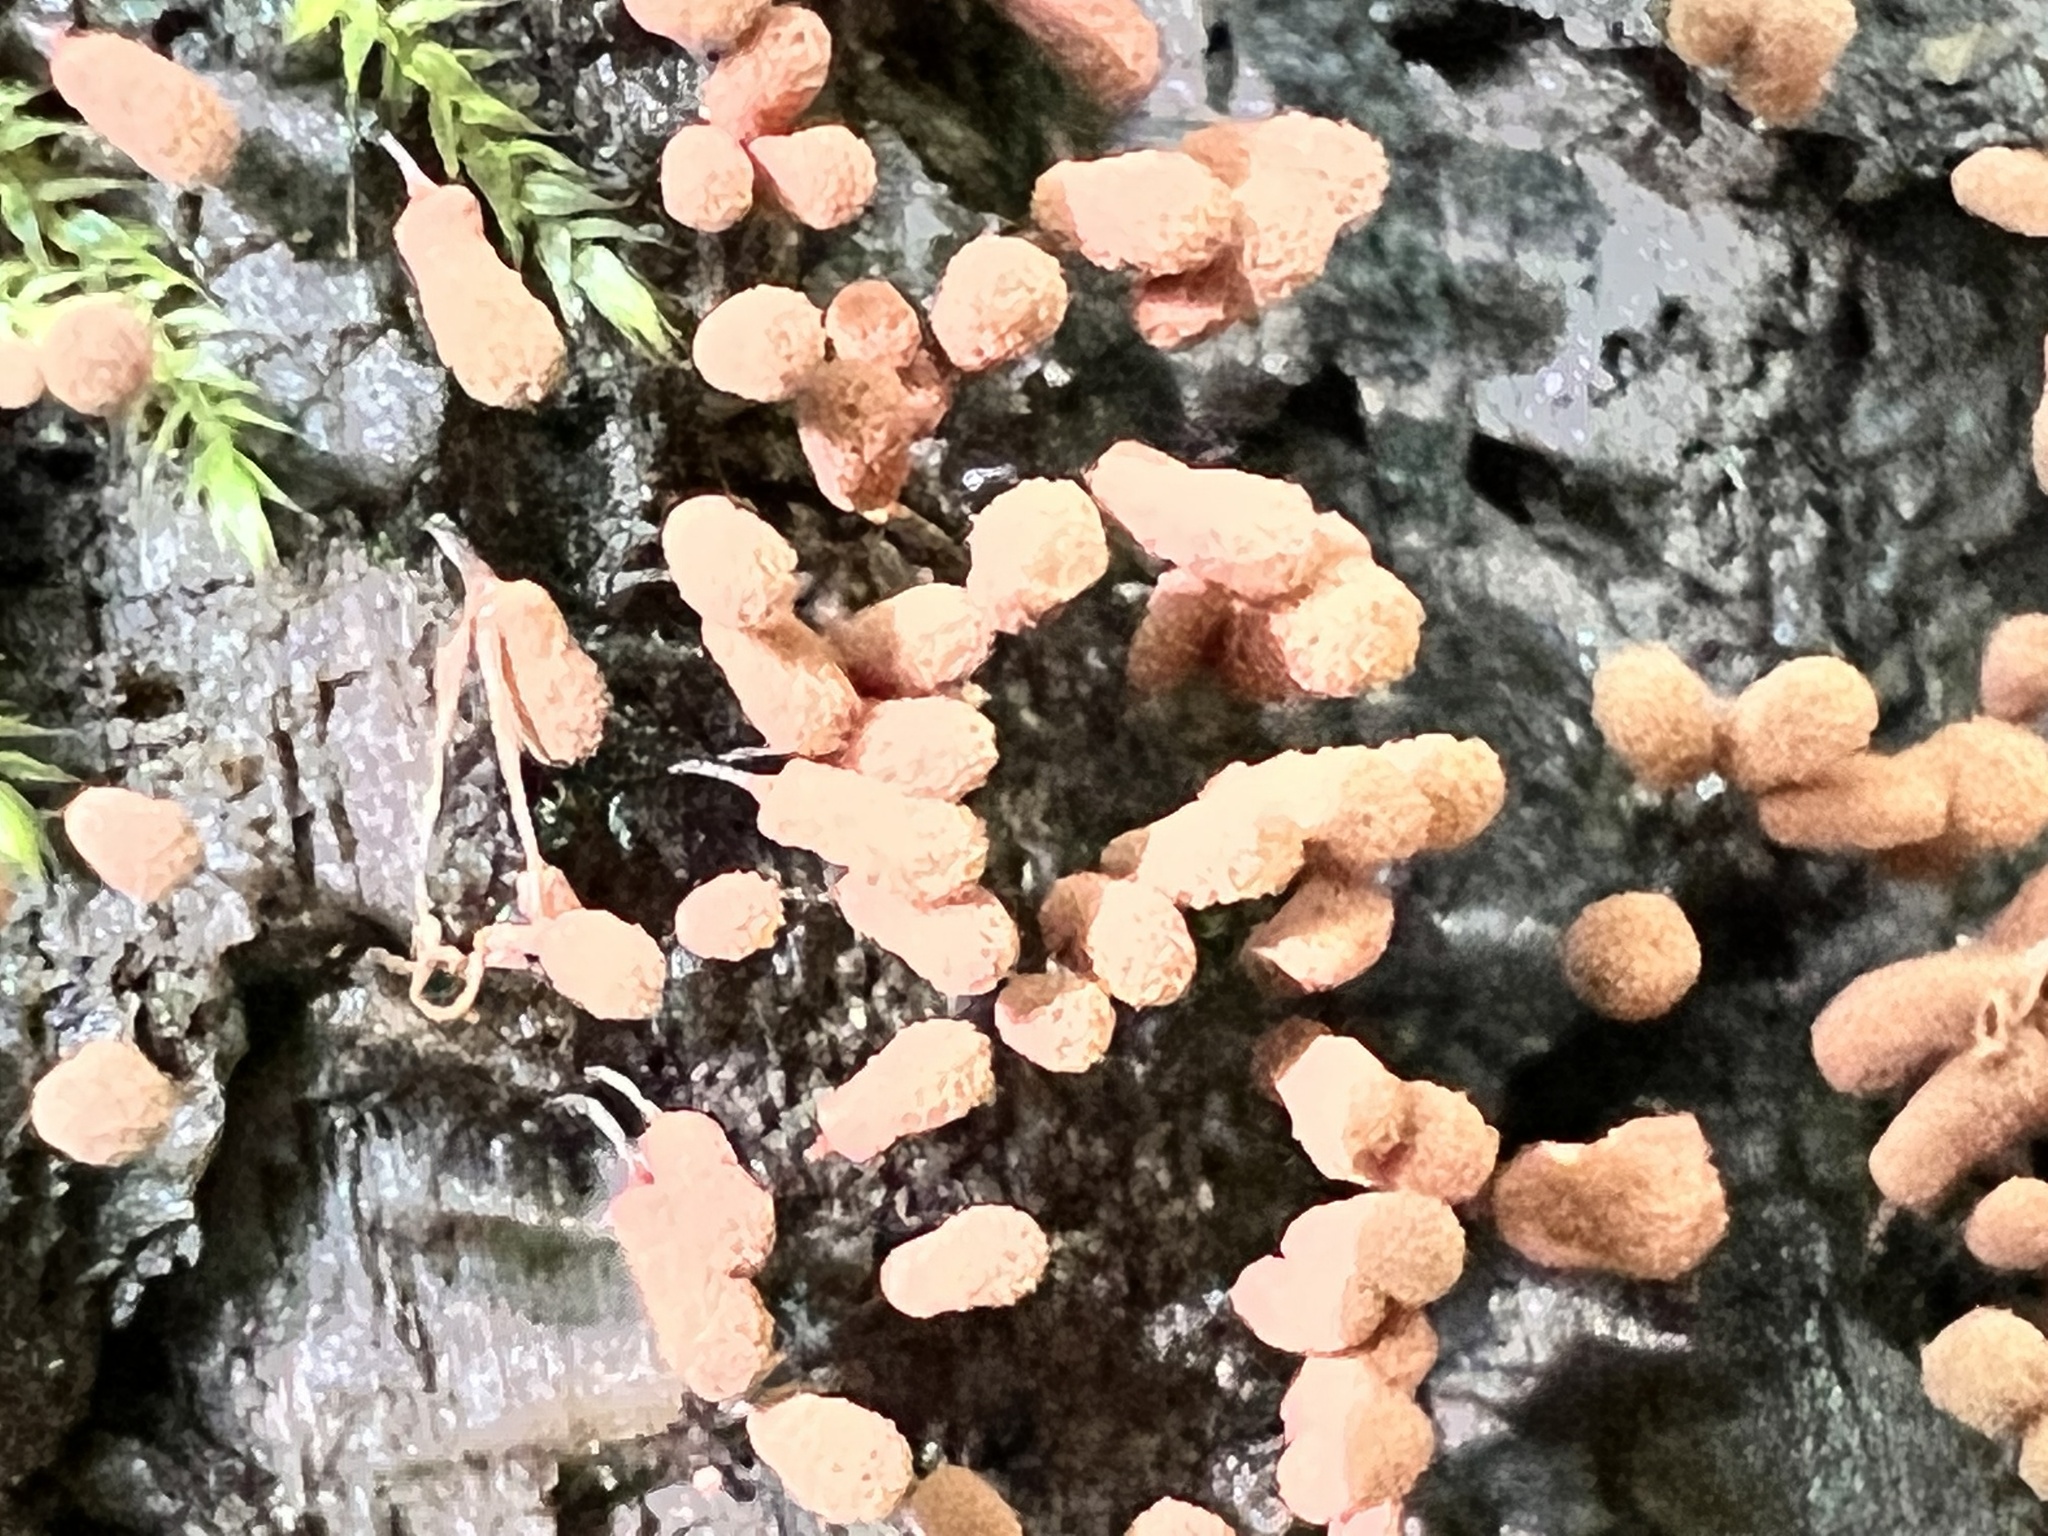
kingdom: Protozoa
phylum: Mycetozoa
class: Myxomycetes
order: Trichiales
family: Arcyriaceae
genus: Arcyria
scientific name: Arcyria denudata
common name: Carnival candy slime mold
